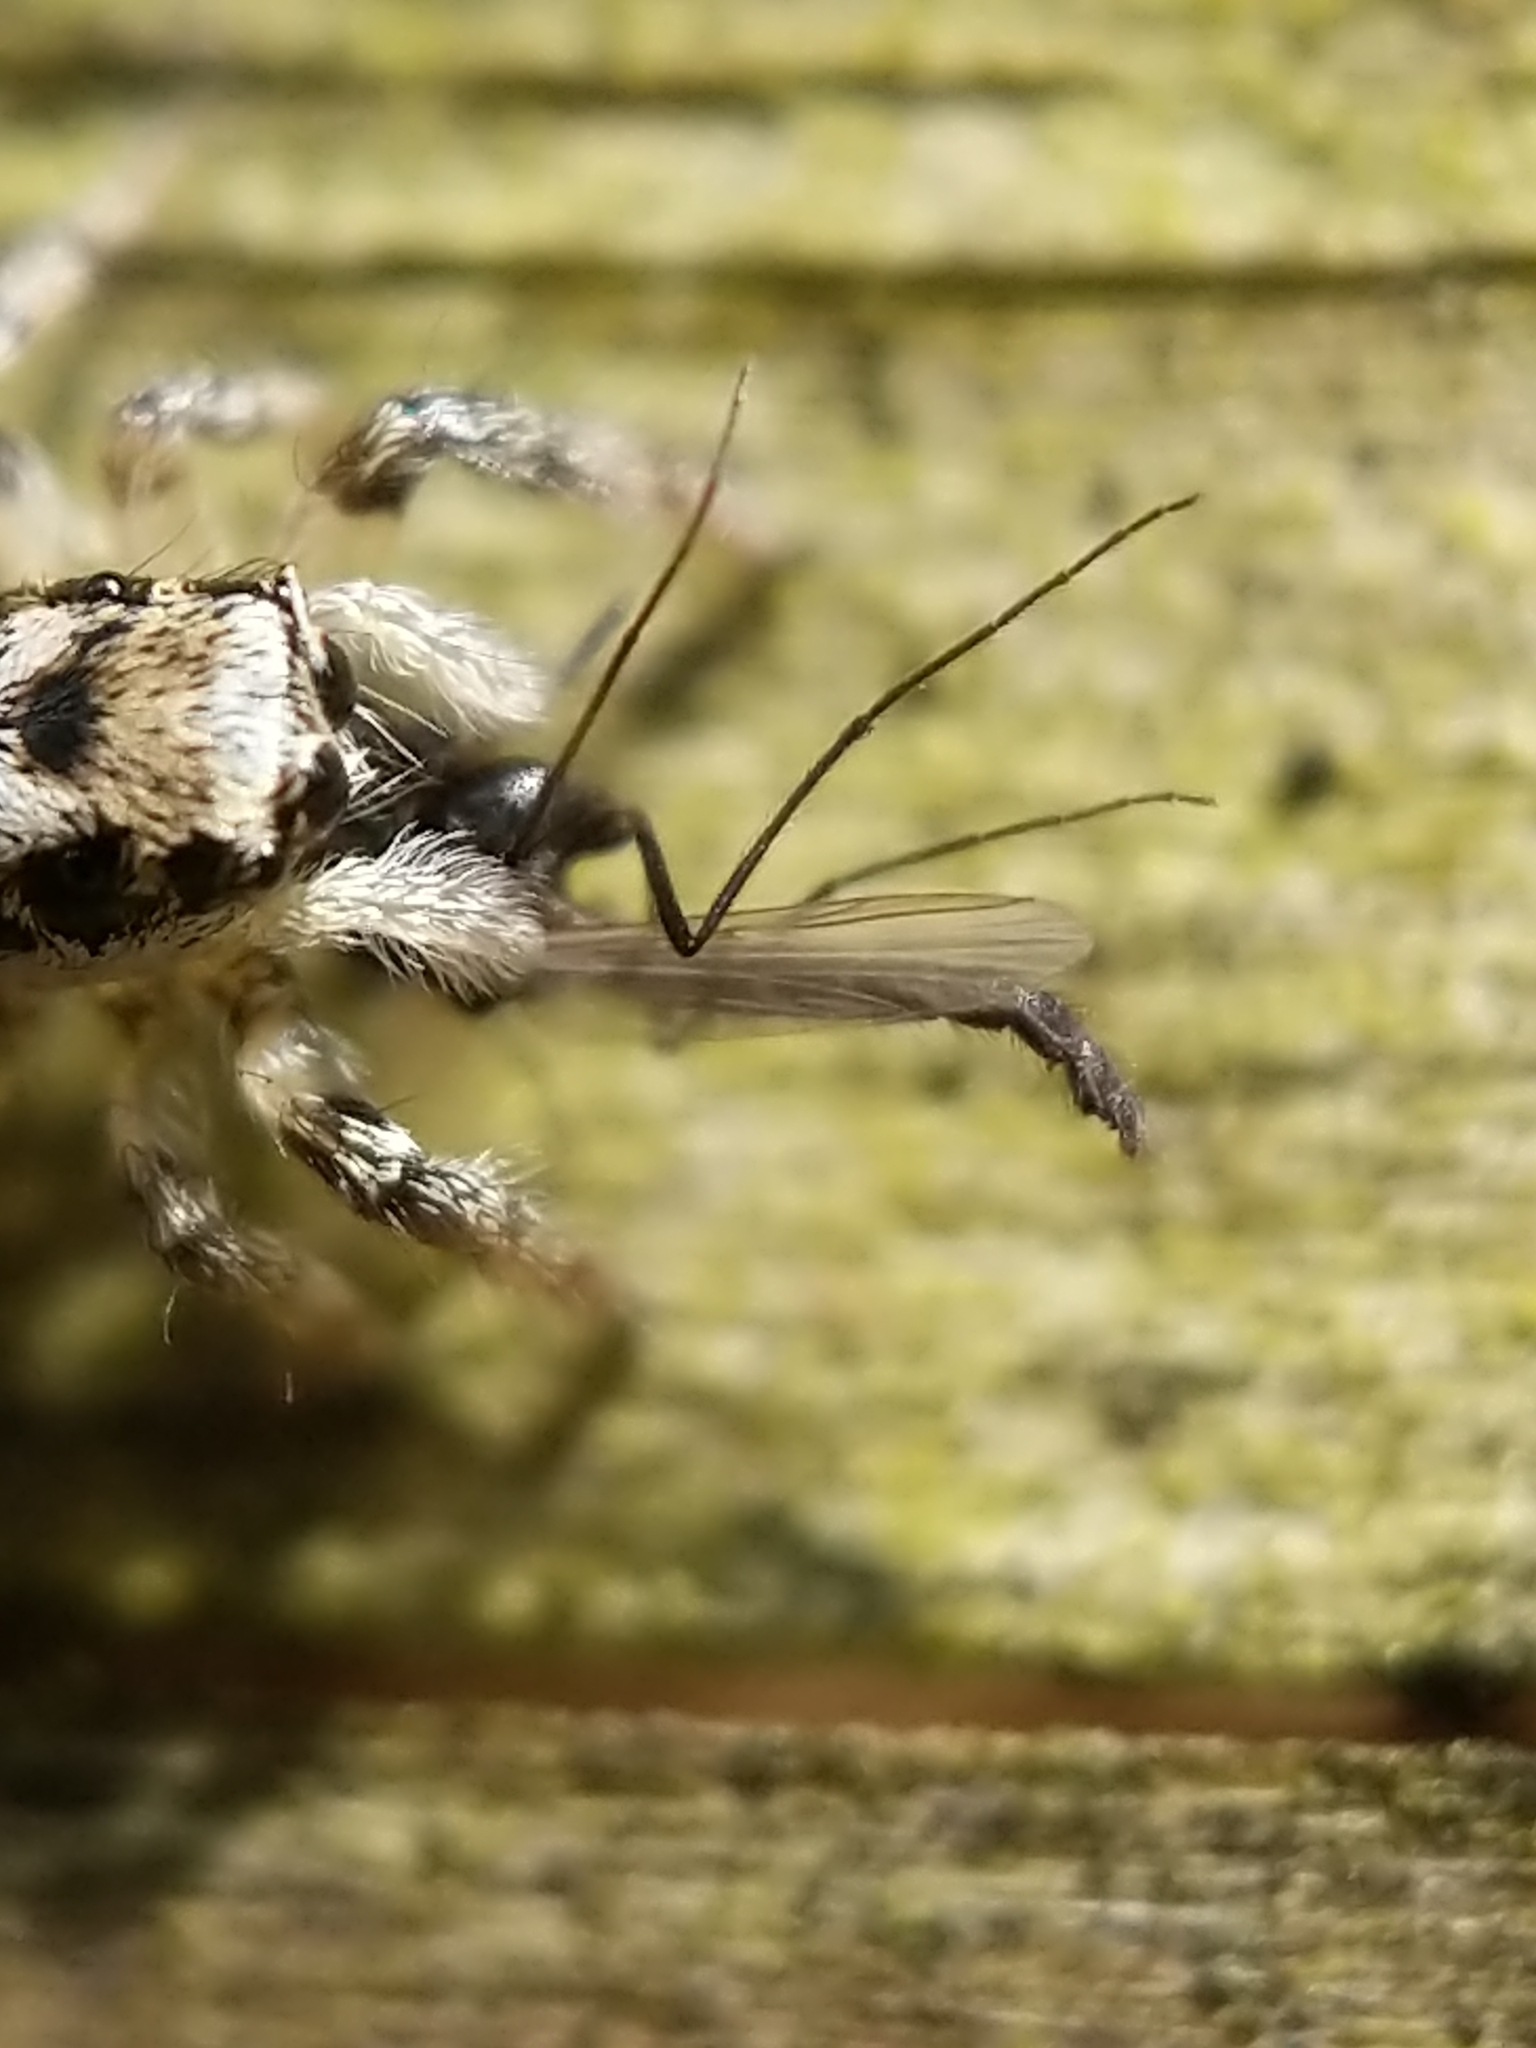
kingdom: Animalia
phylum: Arthropoda
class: Arachnida
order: Araneae
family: Salticidae
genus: Salticus
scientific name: Salticus scenicus
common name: Zebra jumper
